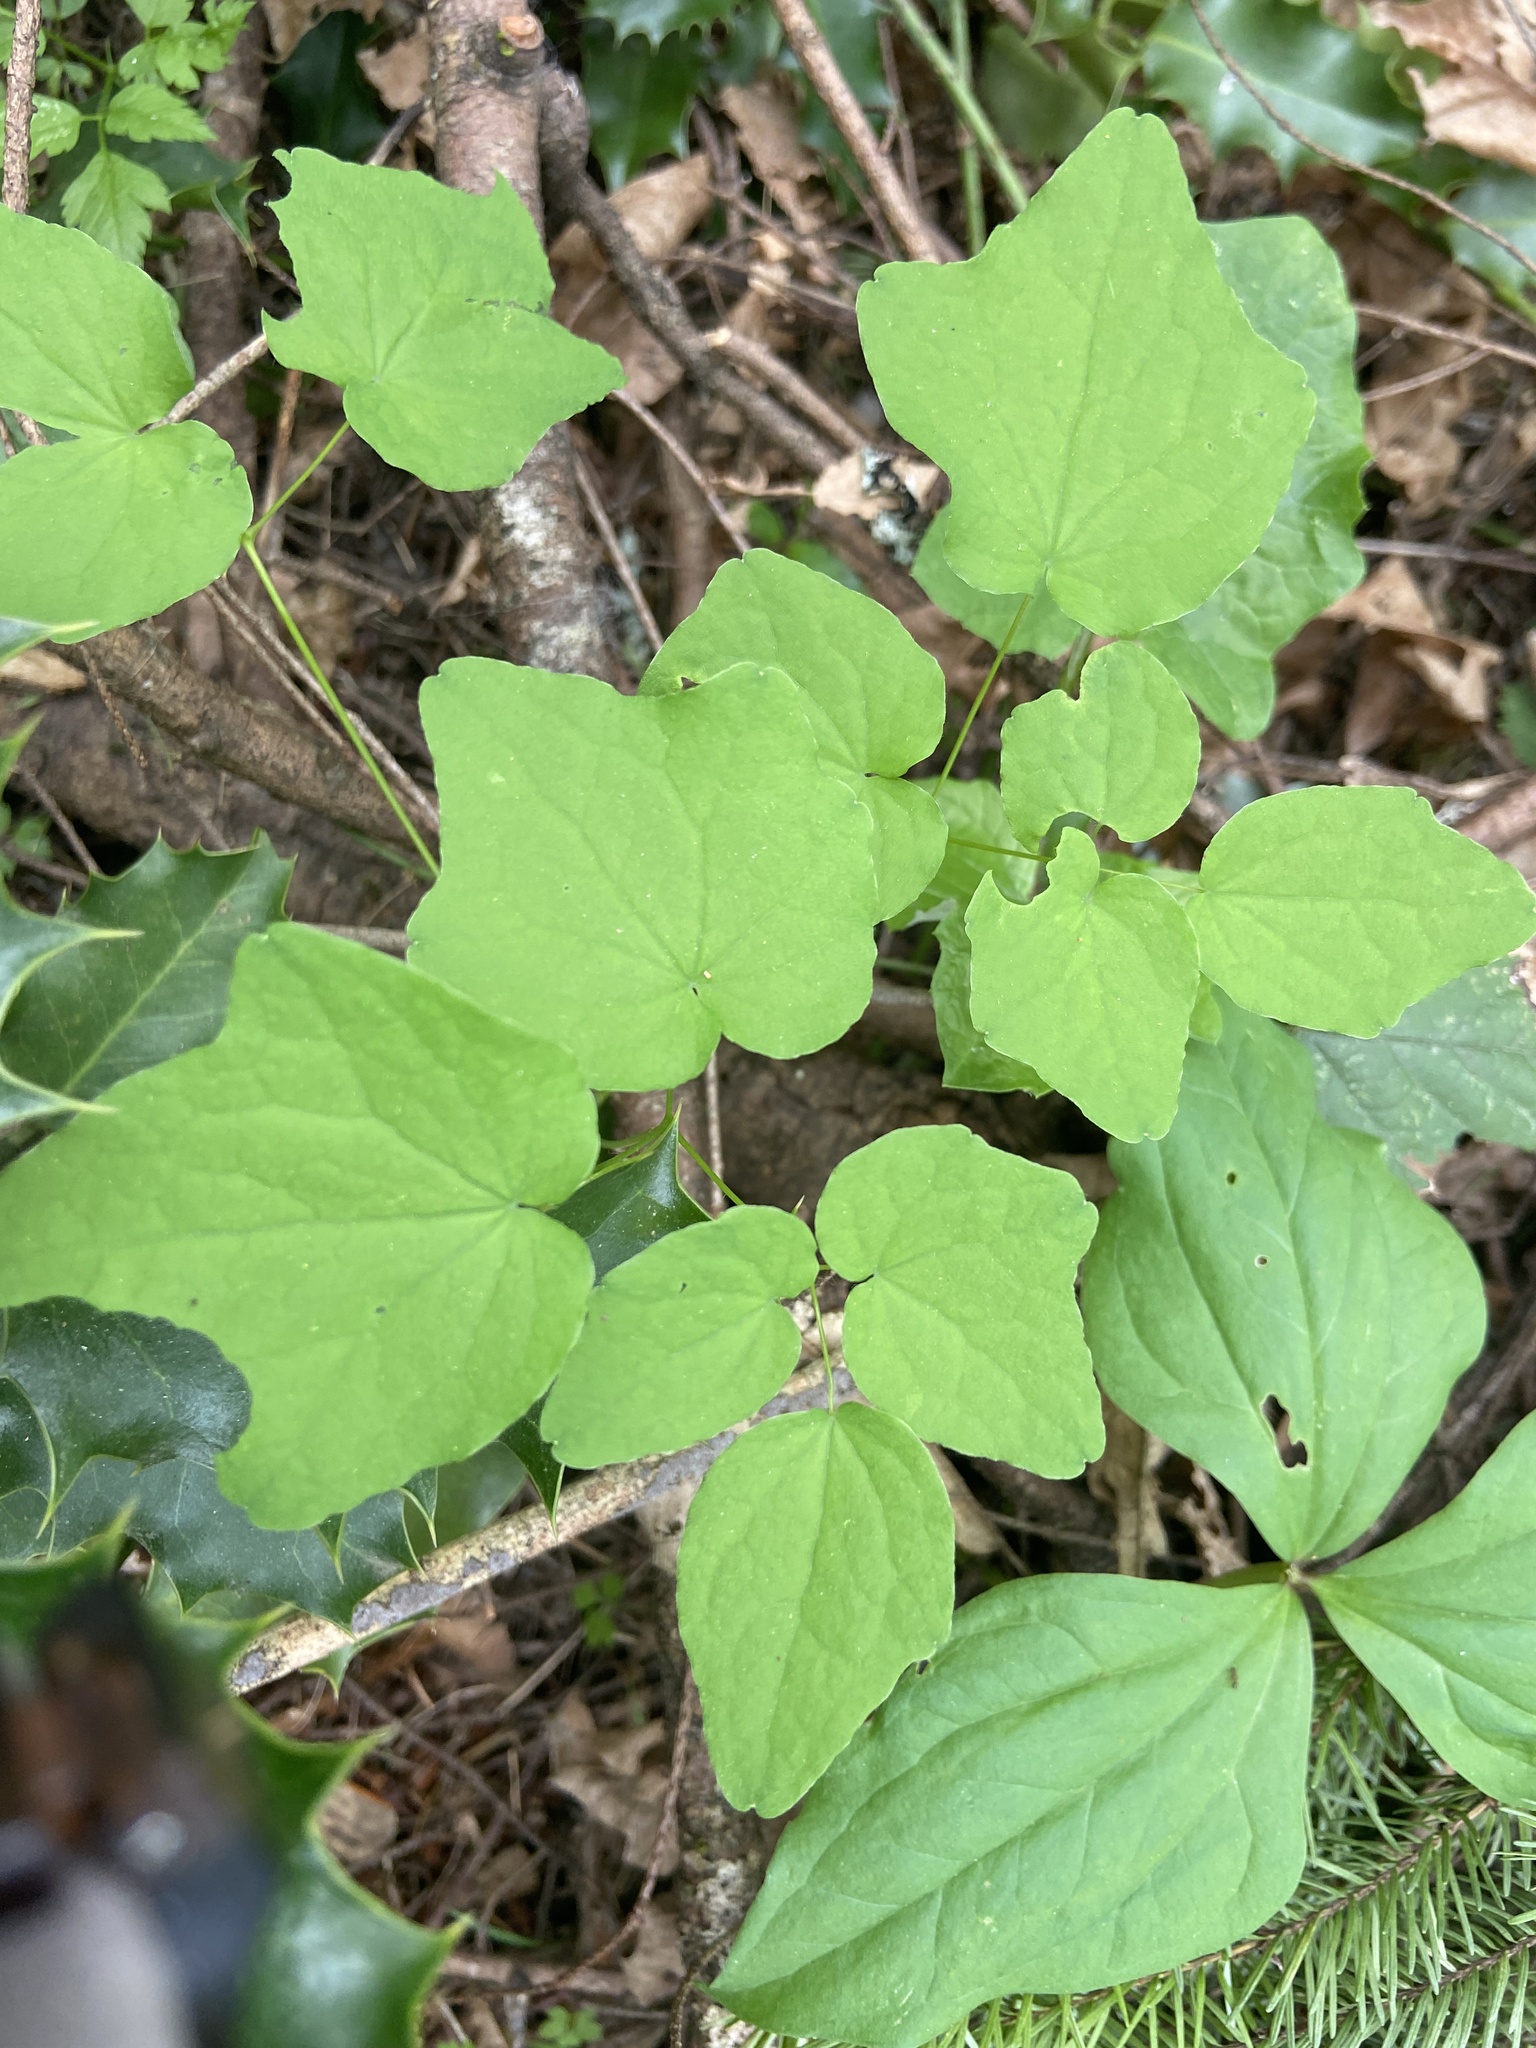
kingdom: Plantae
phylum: Tracheophyta
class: Magnoliopsida
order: Ranunculales
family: Berberidaceae
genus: Vancouveria
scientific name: Vancouveria hexandra
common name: Northern inside-out-flower
